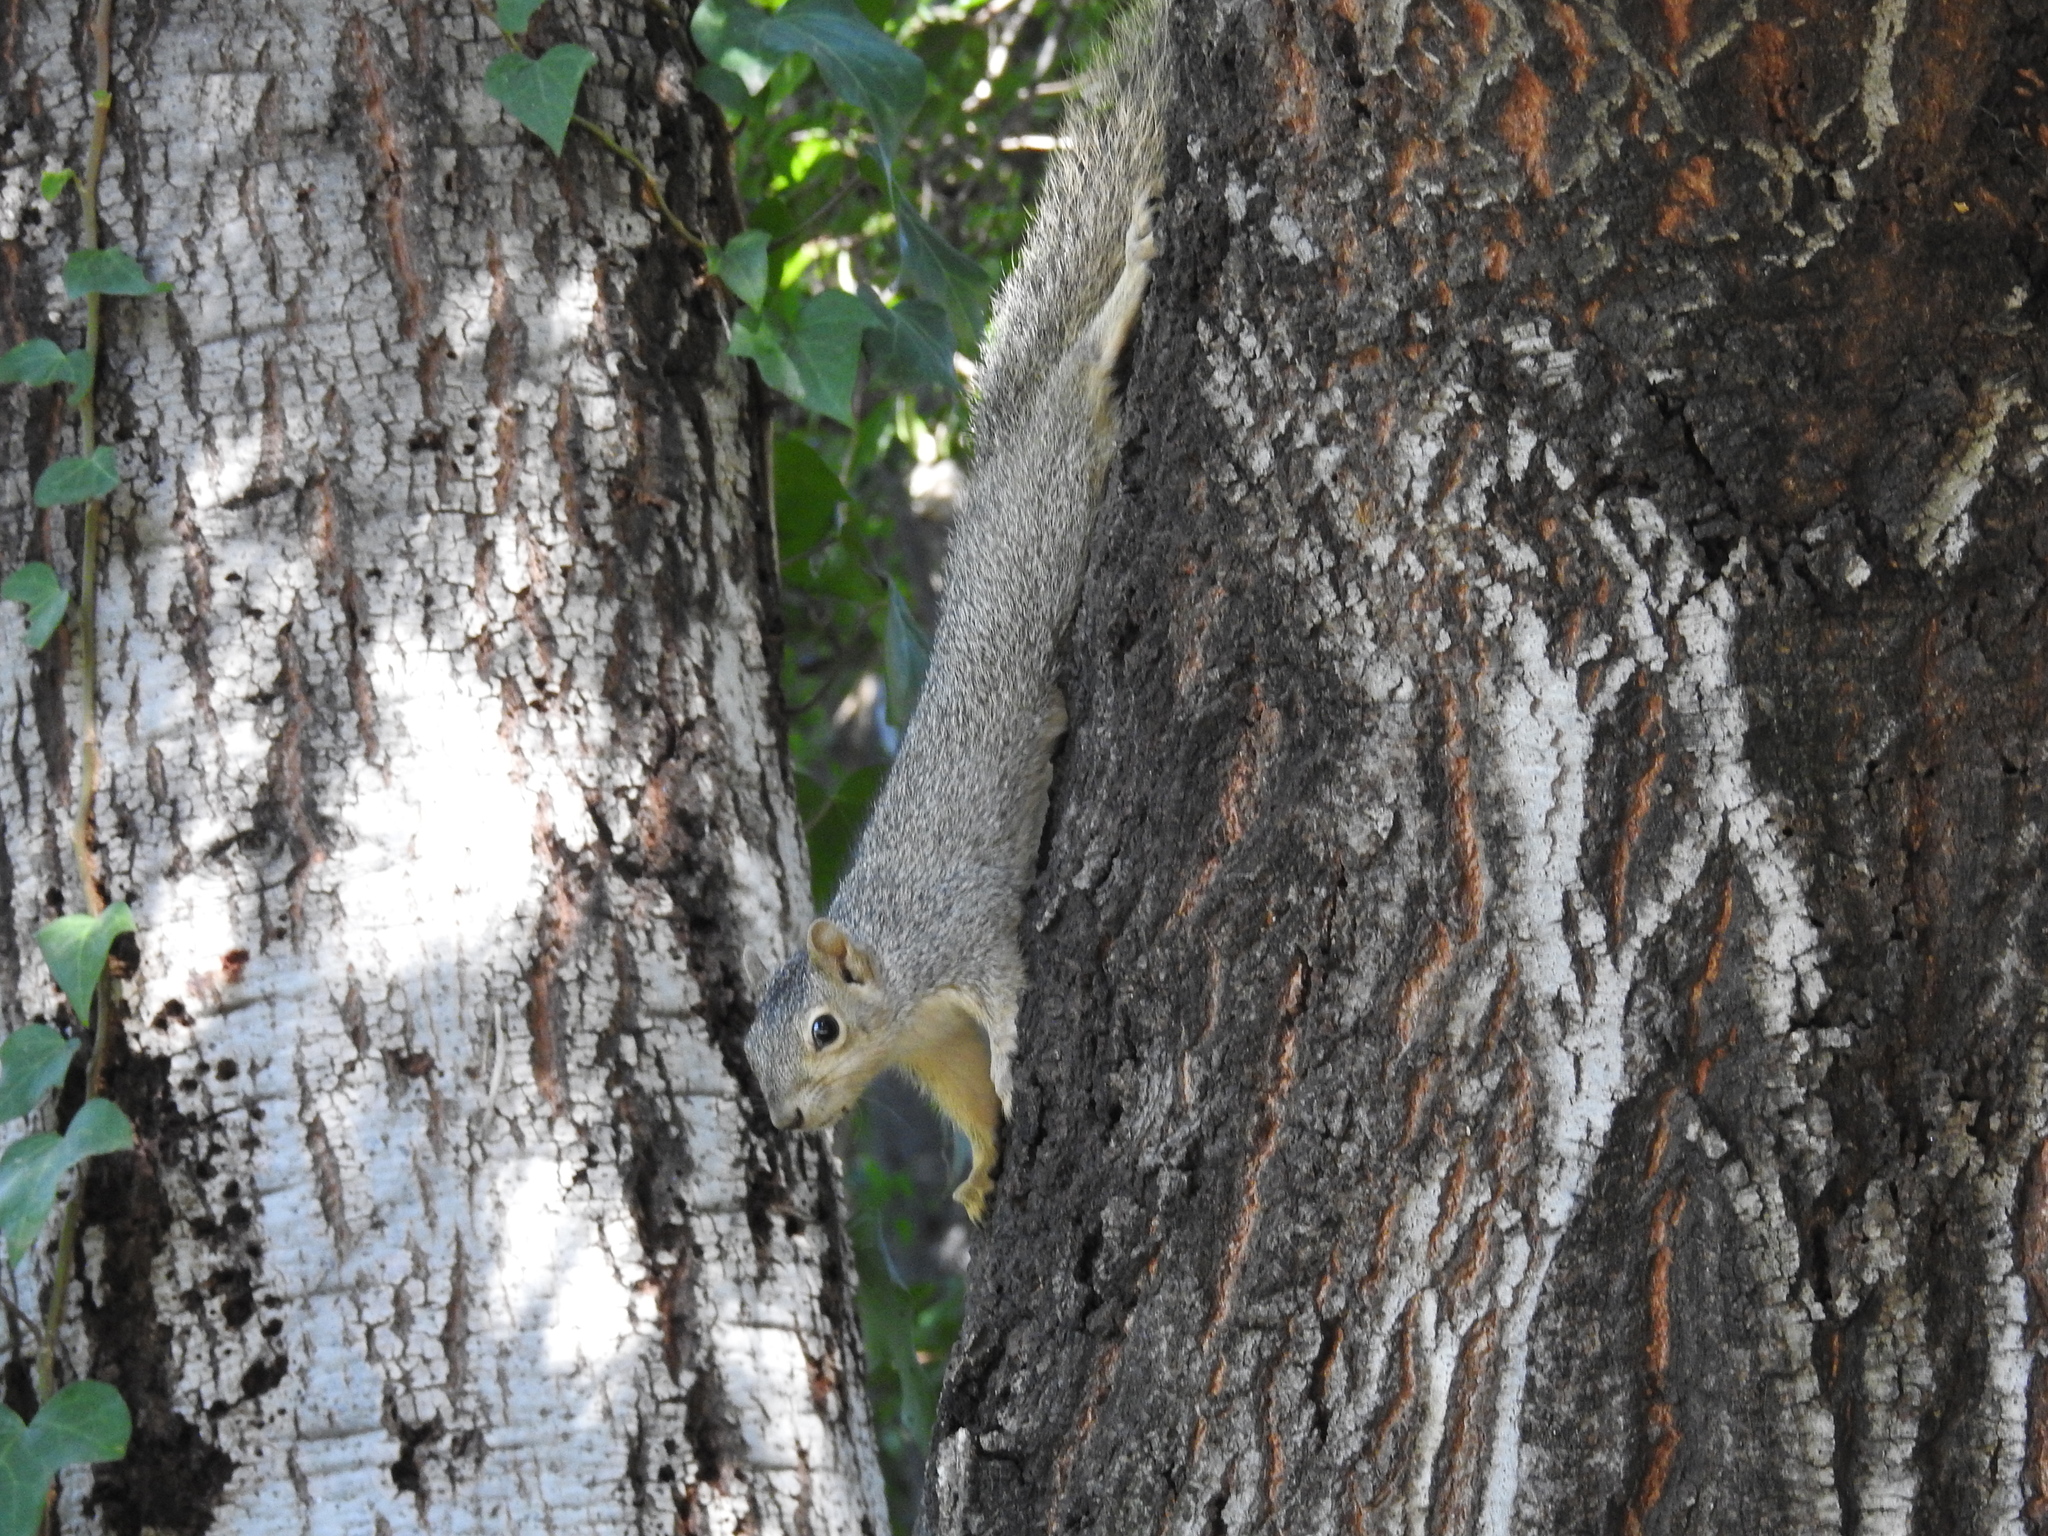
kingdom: Animalia
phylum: Chordata
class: Mammalia
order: Rodentia
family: Sciuridae
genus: Sciurus
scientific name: Sciurus niger
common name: Fox squirrel
